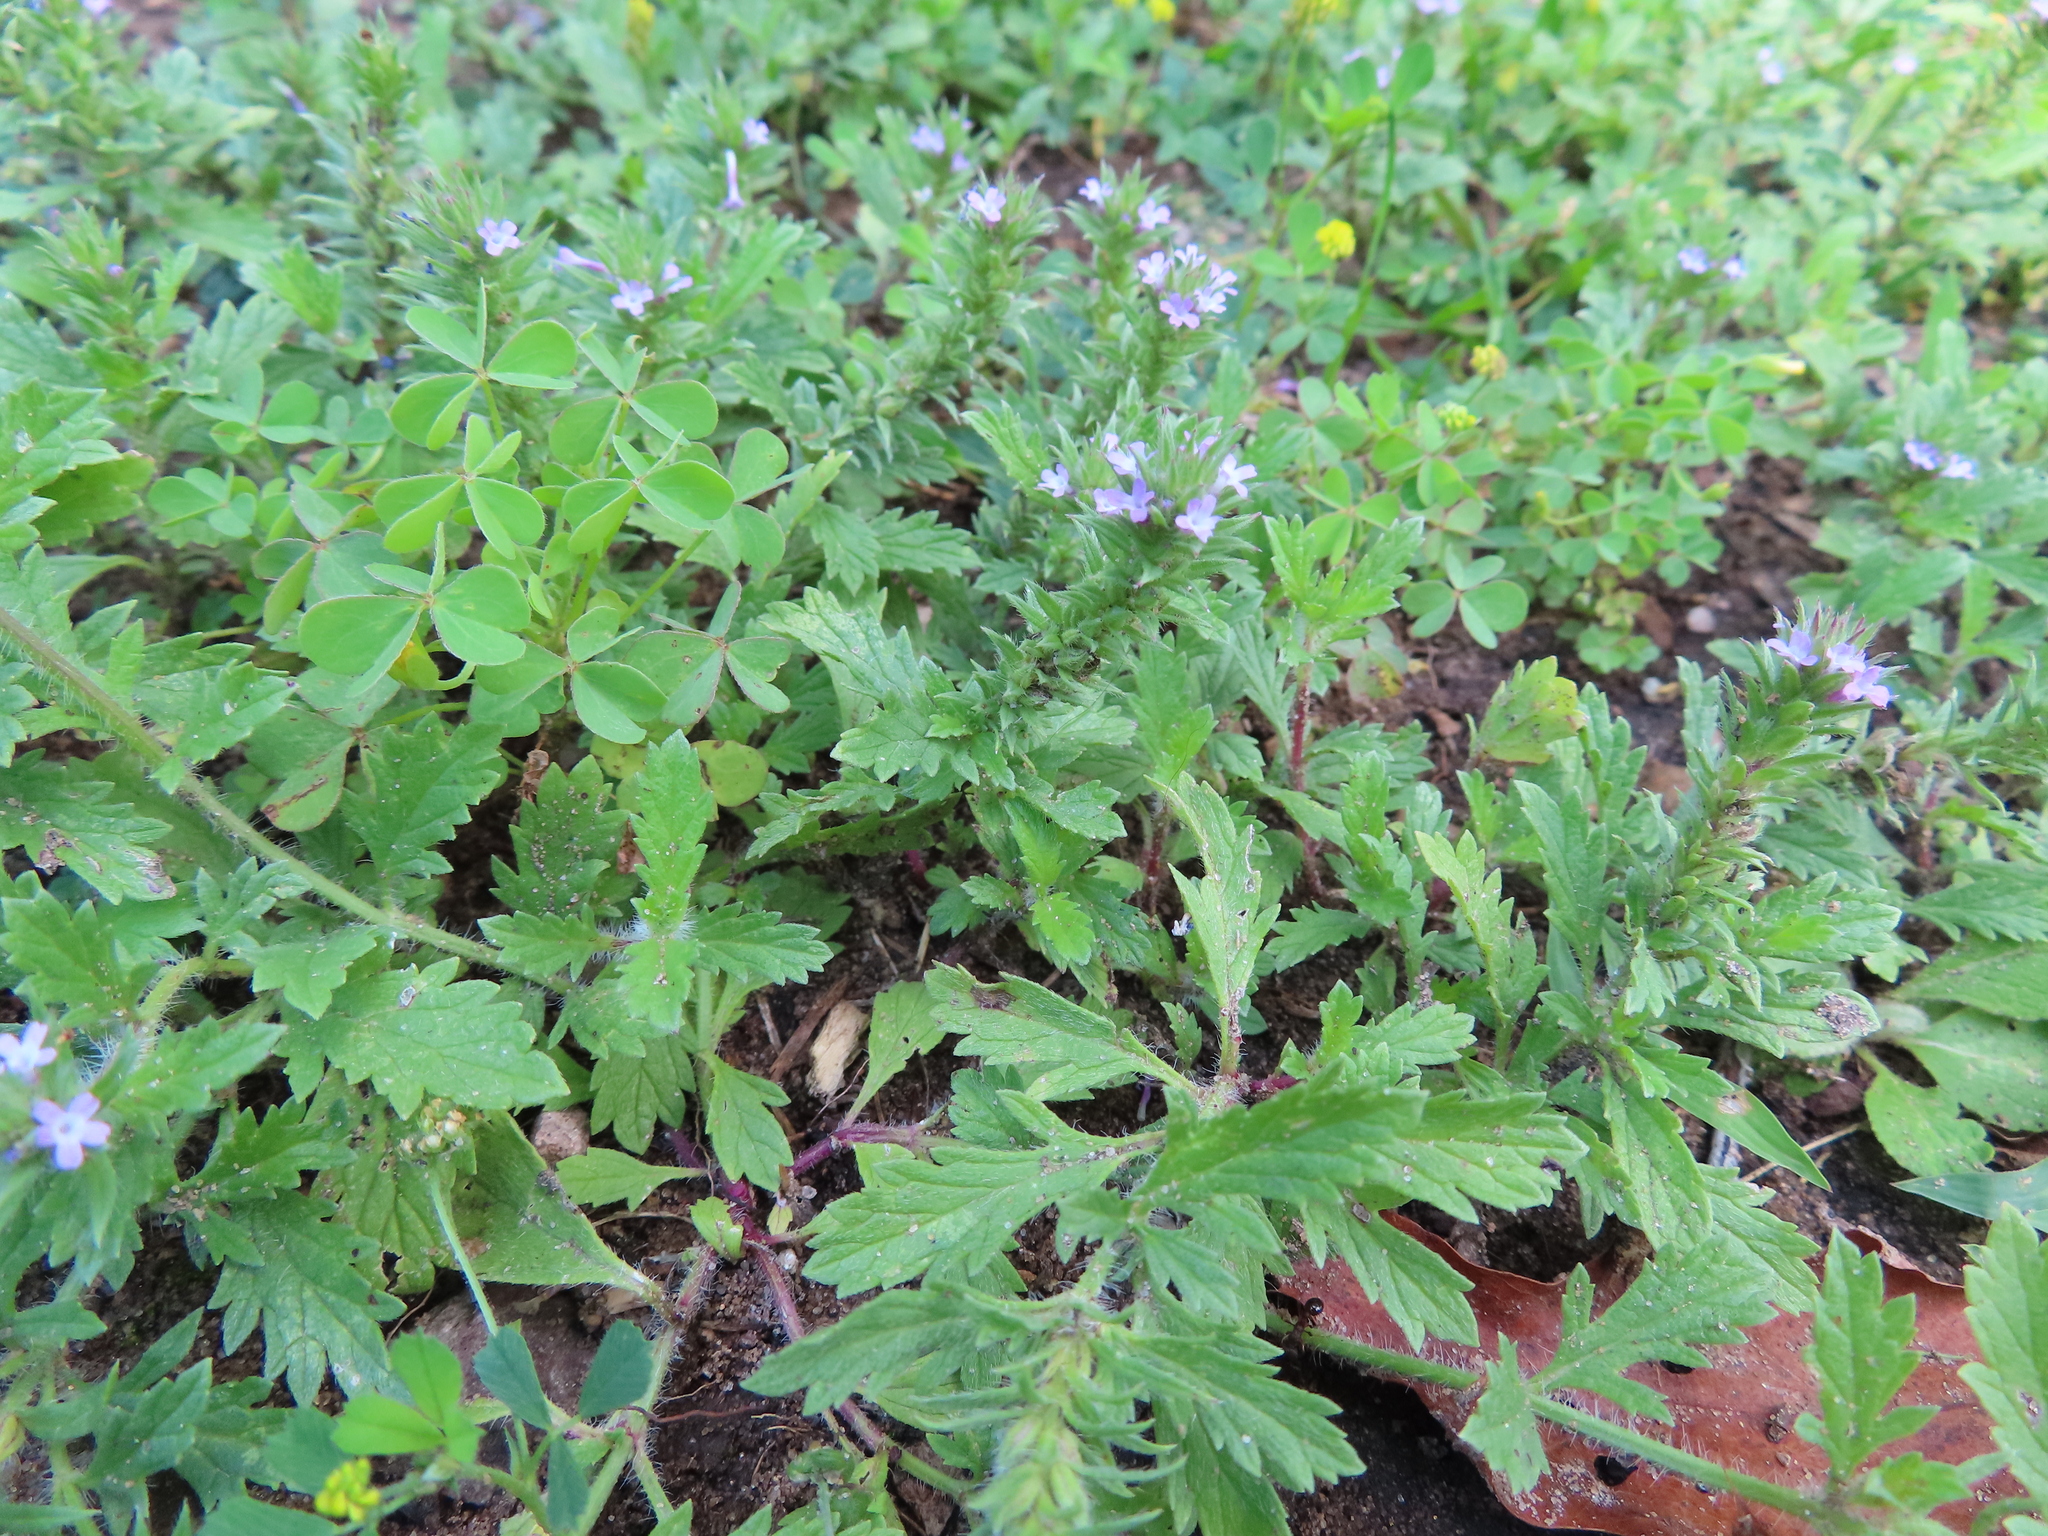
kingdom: Plantae
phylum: Tracheophyta
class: Magnoliopsida
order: Lamiales
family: Verbenaceae
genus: Verbena
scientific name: Verbena bracteata
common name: Bracted vervain
